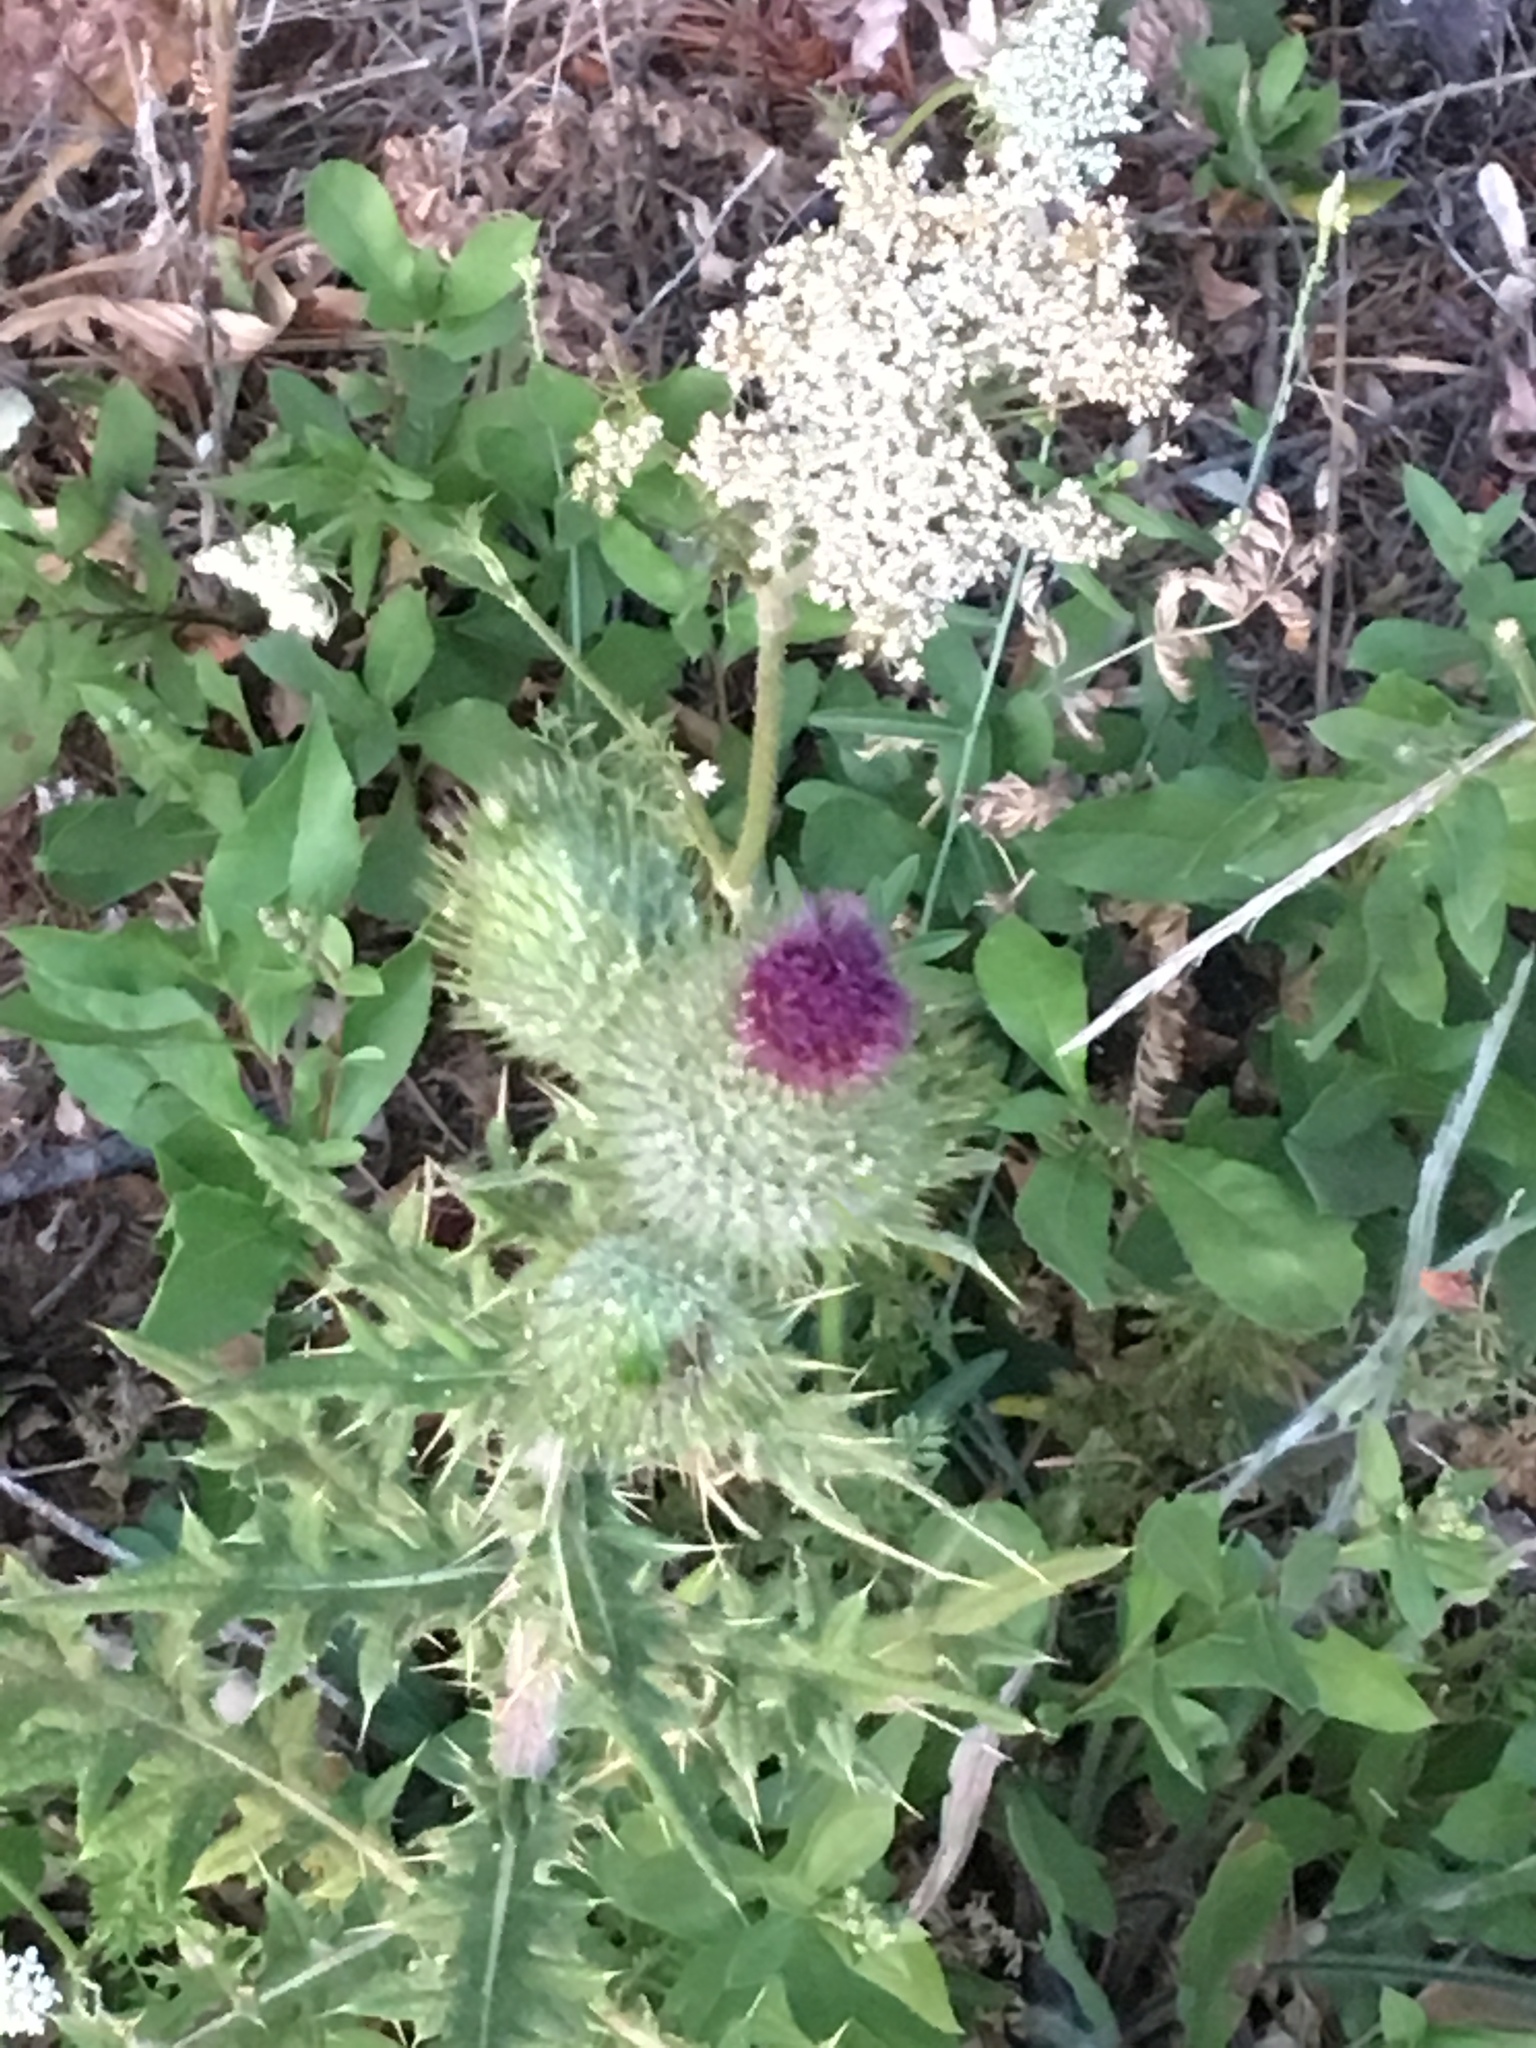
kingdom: Plantae
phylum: Tracheophyta
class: Magnoliopsida
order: Asterales
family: Asteraceae
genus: Cirsium
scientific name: Cirsium vulgare
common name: Bull thistle
